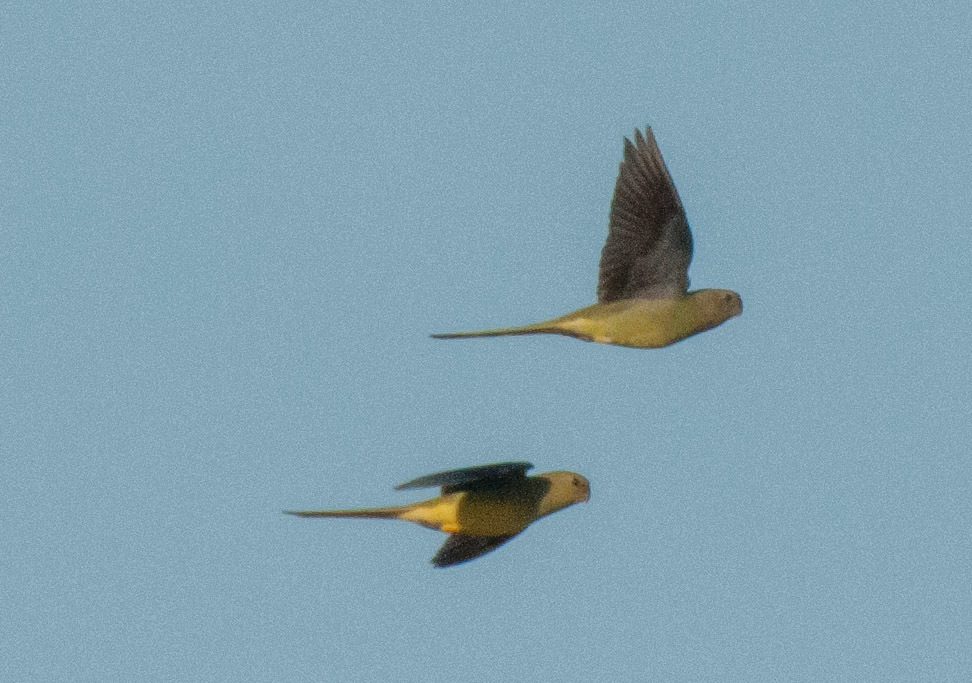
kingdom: Animalia
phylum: Chordata
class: Aves
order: Psittaciformes
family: Psittacidae
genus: Neophema
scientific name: Neophema elegans
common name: Elegant parrot
